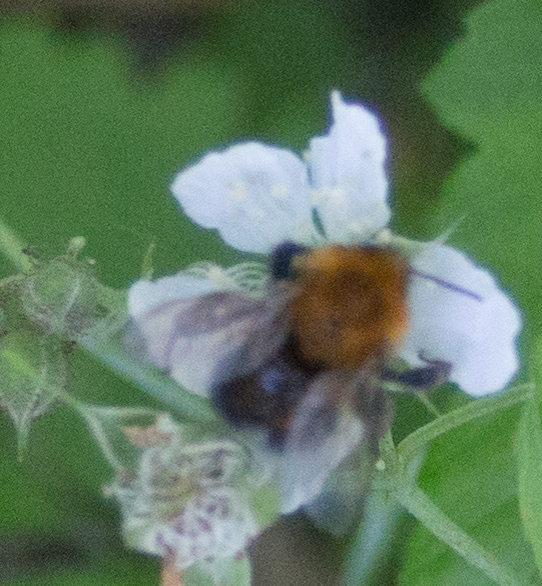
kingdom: Animalia
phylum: Arthropoda
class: Insecta
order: Hymenoptera
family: Apidae
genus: Bombus
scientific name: Bombus hypnorum
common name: New garden bumblebee
